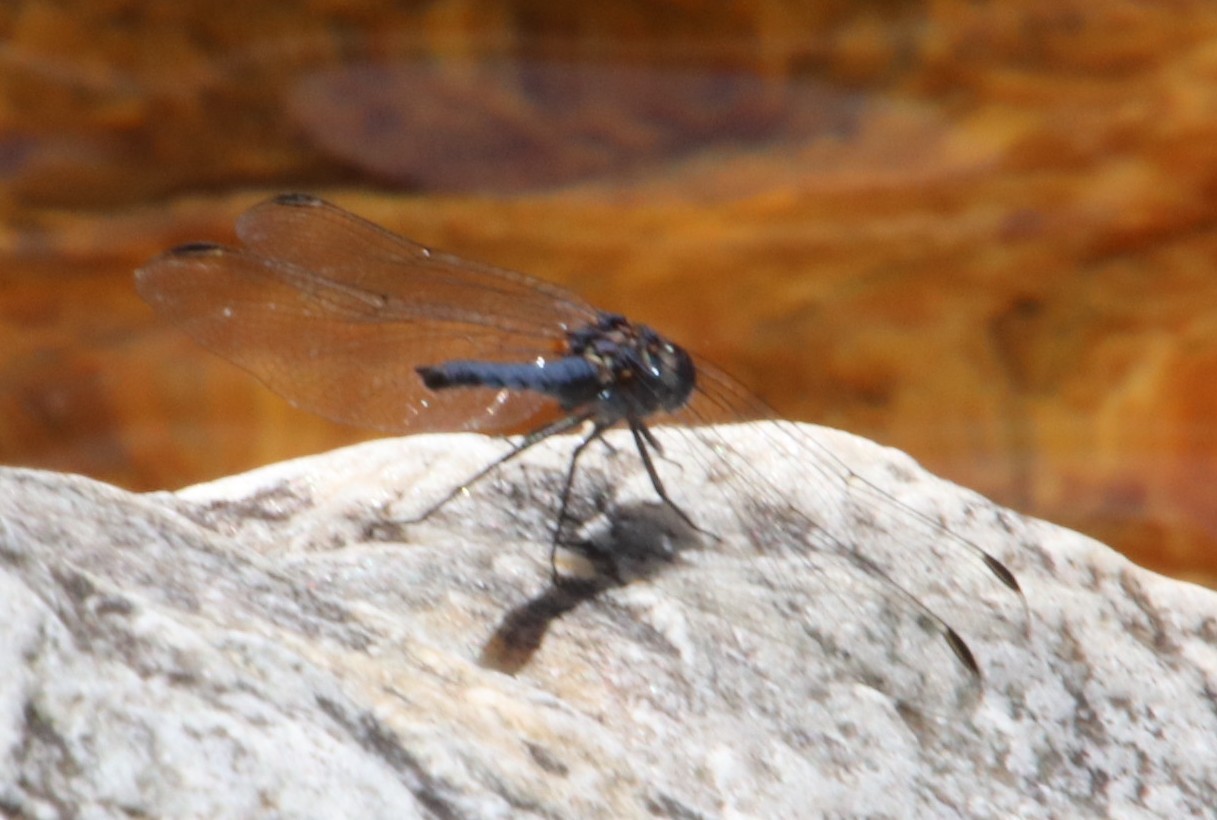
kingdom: Animalia
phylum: Arthropoda
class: Insecta
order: Odonata
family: Libellulidae
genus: Trithemis
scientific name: Trithemis furva
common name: Dark dropwing
